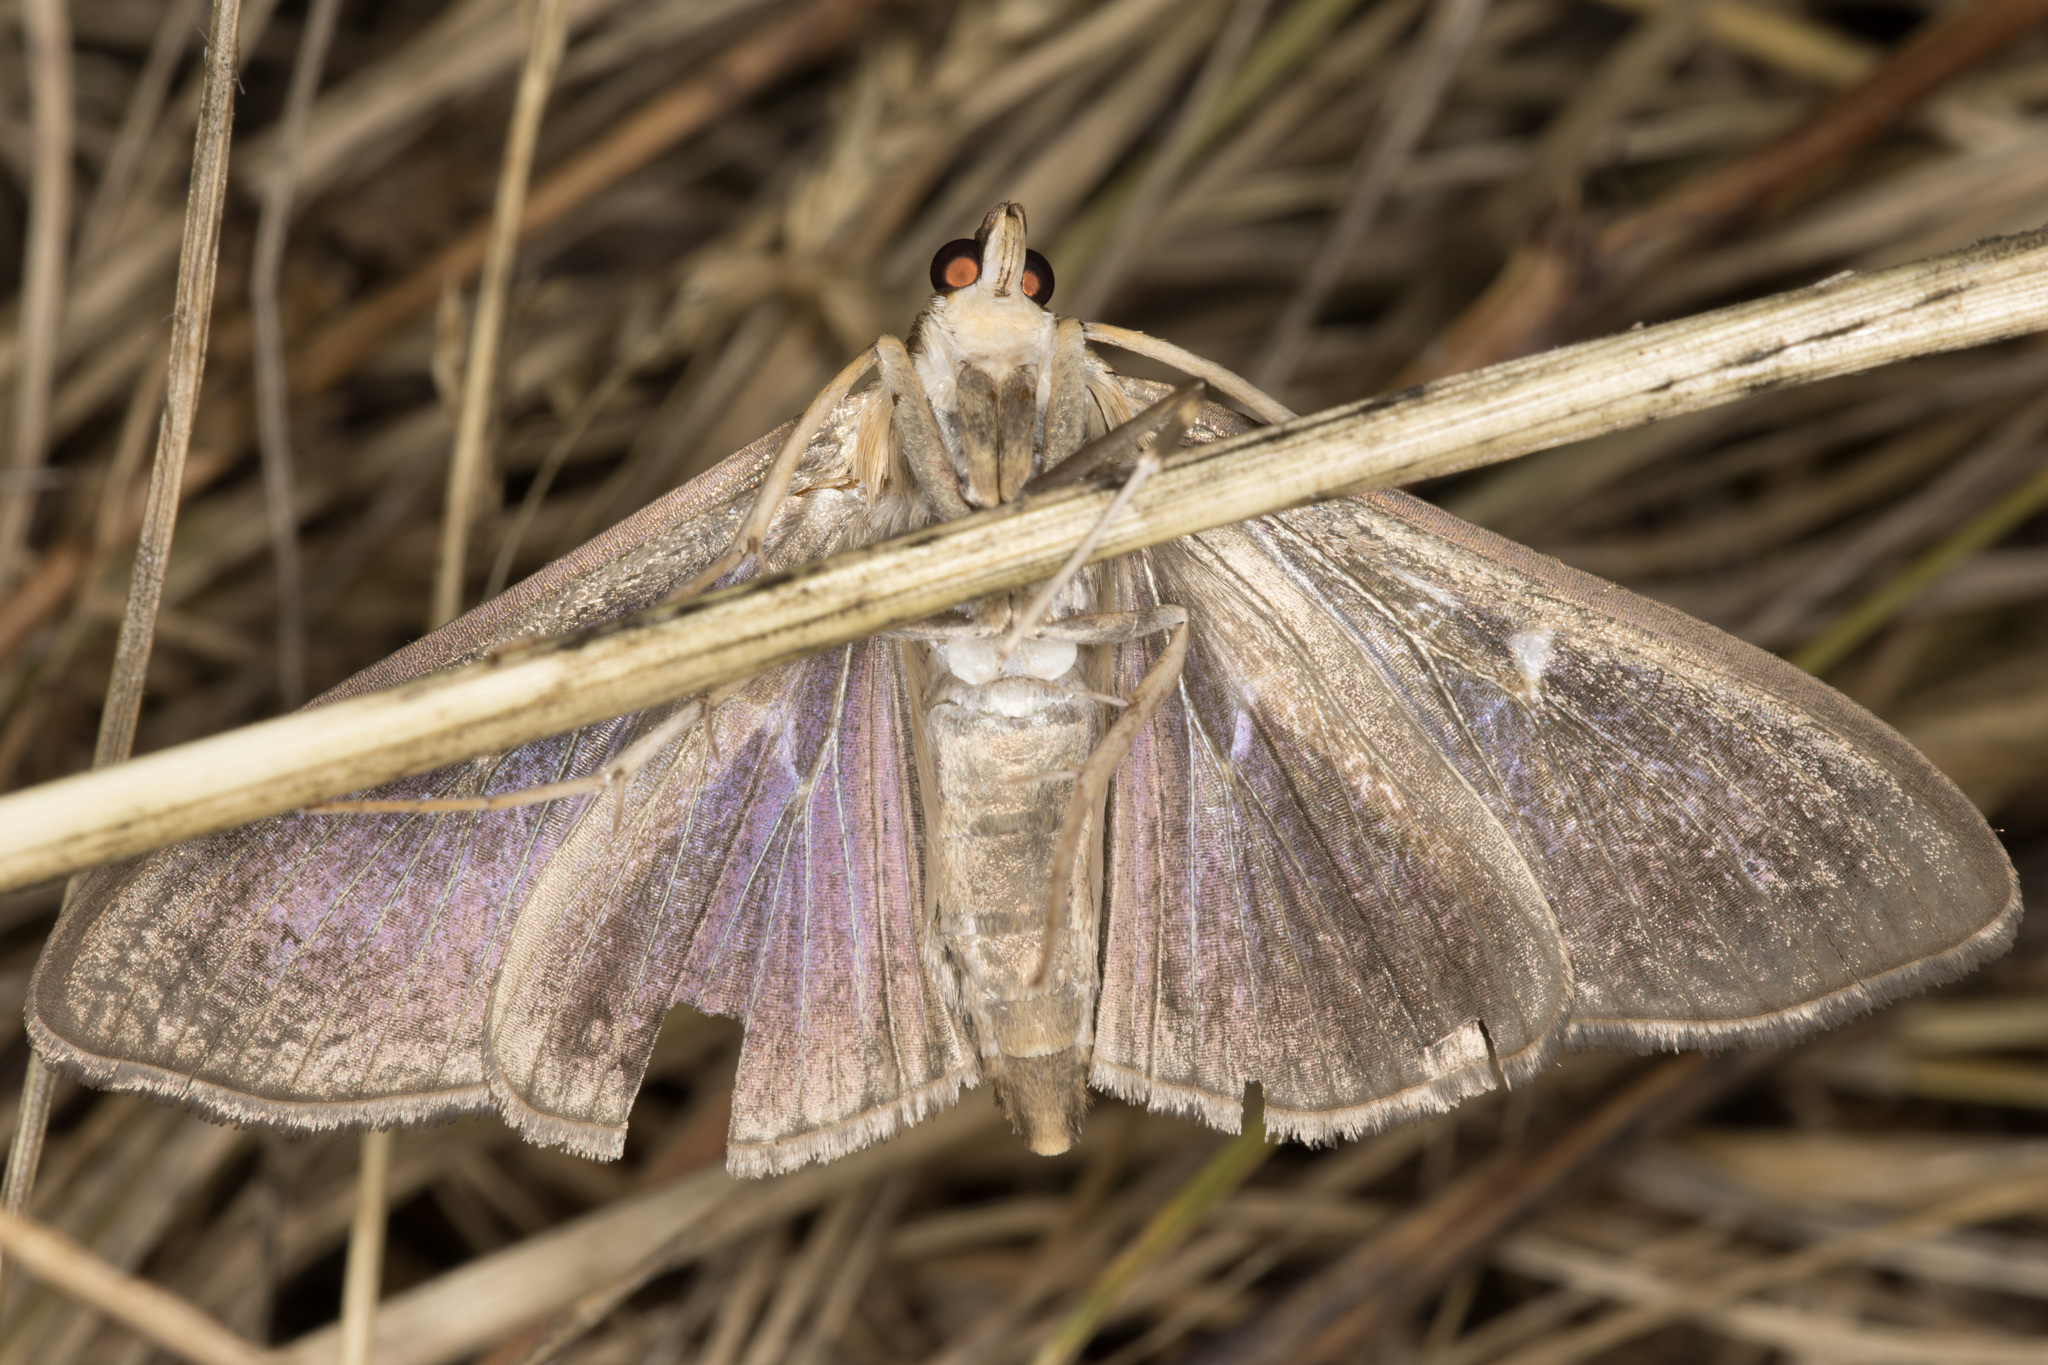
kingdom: Animalia
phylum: Arthropoda
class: Insecta
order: Lepidoptera
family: Crambidae
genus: Cydalima
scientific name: Cydalima perspectalis
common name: Box tree moth
